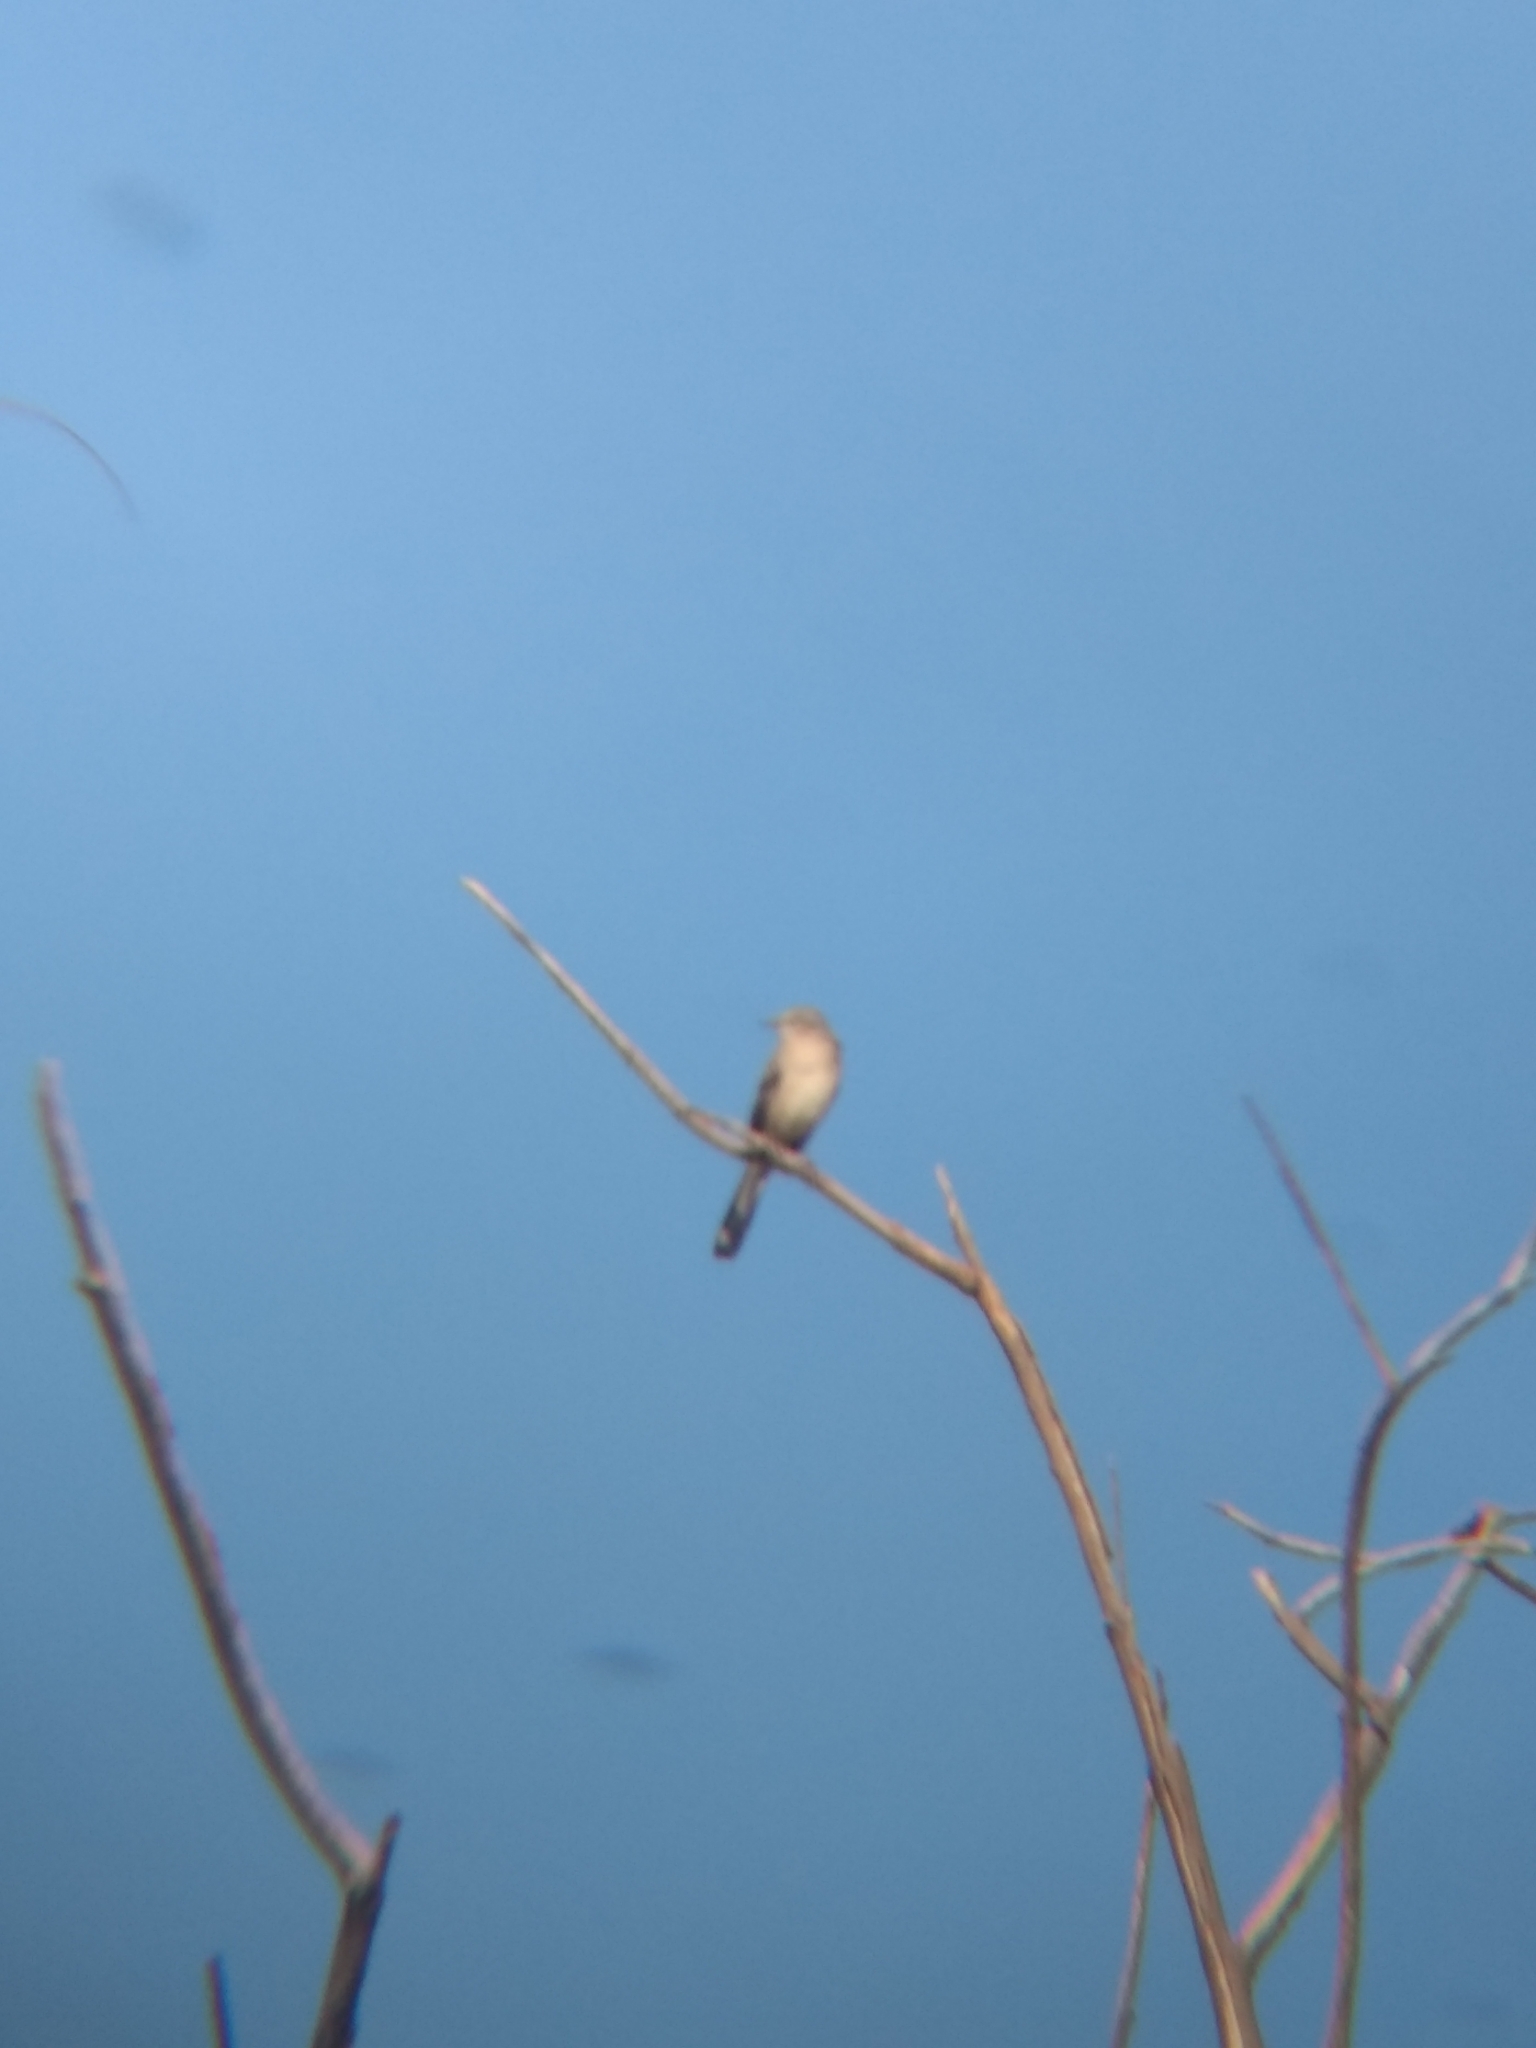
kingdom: Animalia
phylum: Chordata
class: Aves
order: Passeriformes
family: Mimidae
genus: Mimus
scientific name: Mimus polyglottos
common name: Northern mockingbird
